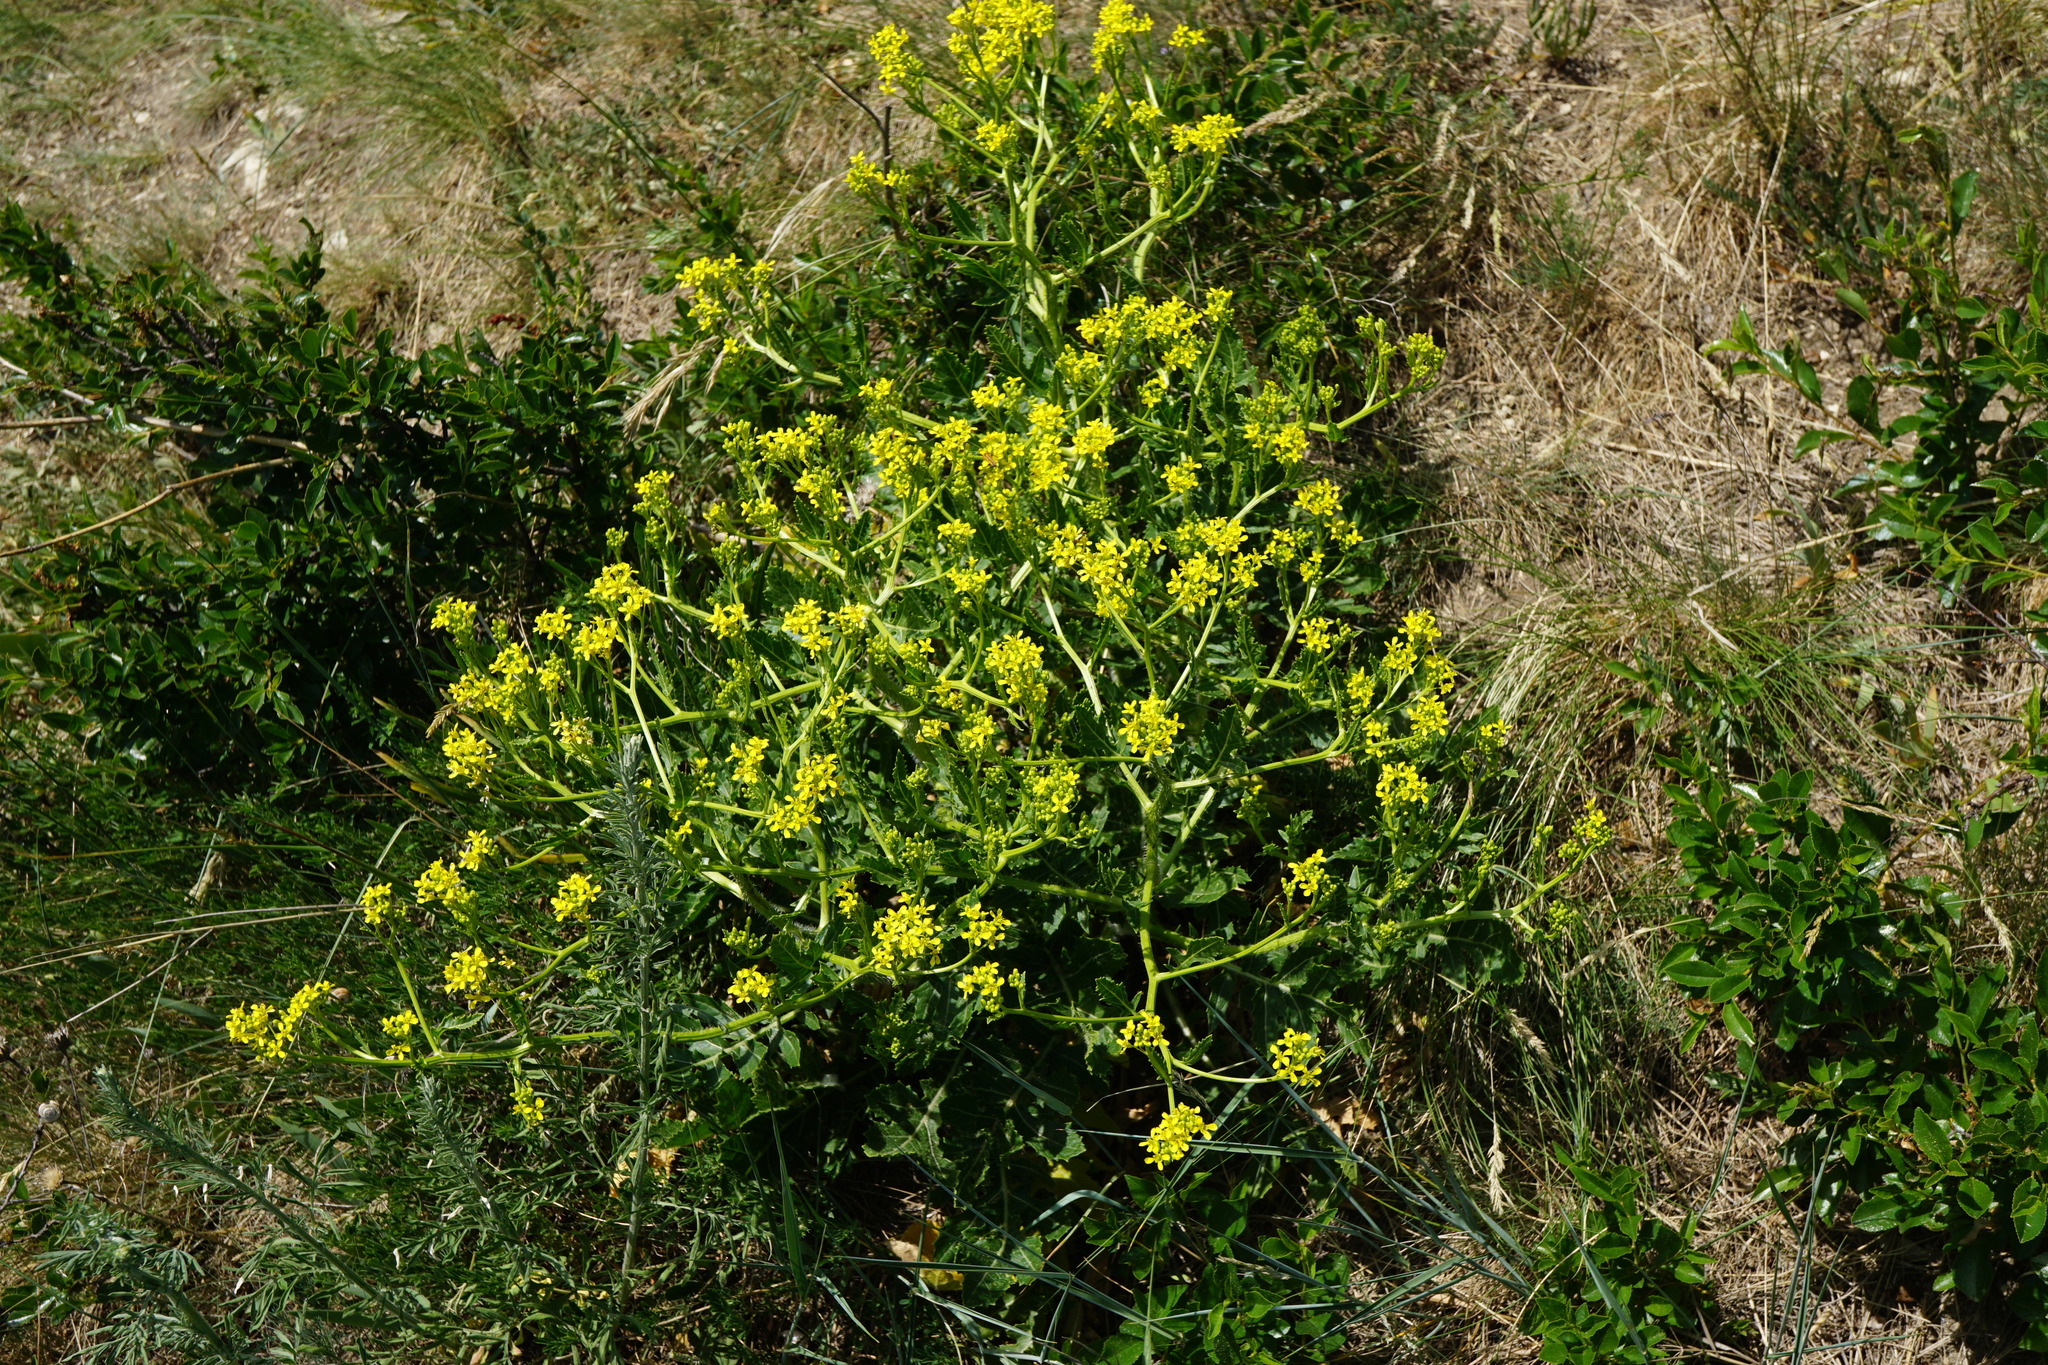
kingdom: Plantae
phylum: Tracheophyta
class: Magnoliopsida
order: Brassicales
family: Brassicaceae
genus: Rapistrum
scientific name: Rapistrum perenne
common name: Steppe cabbage
